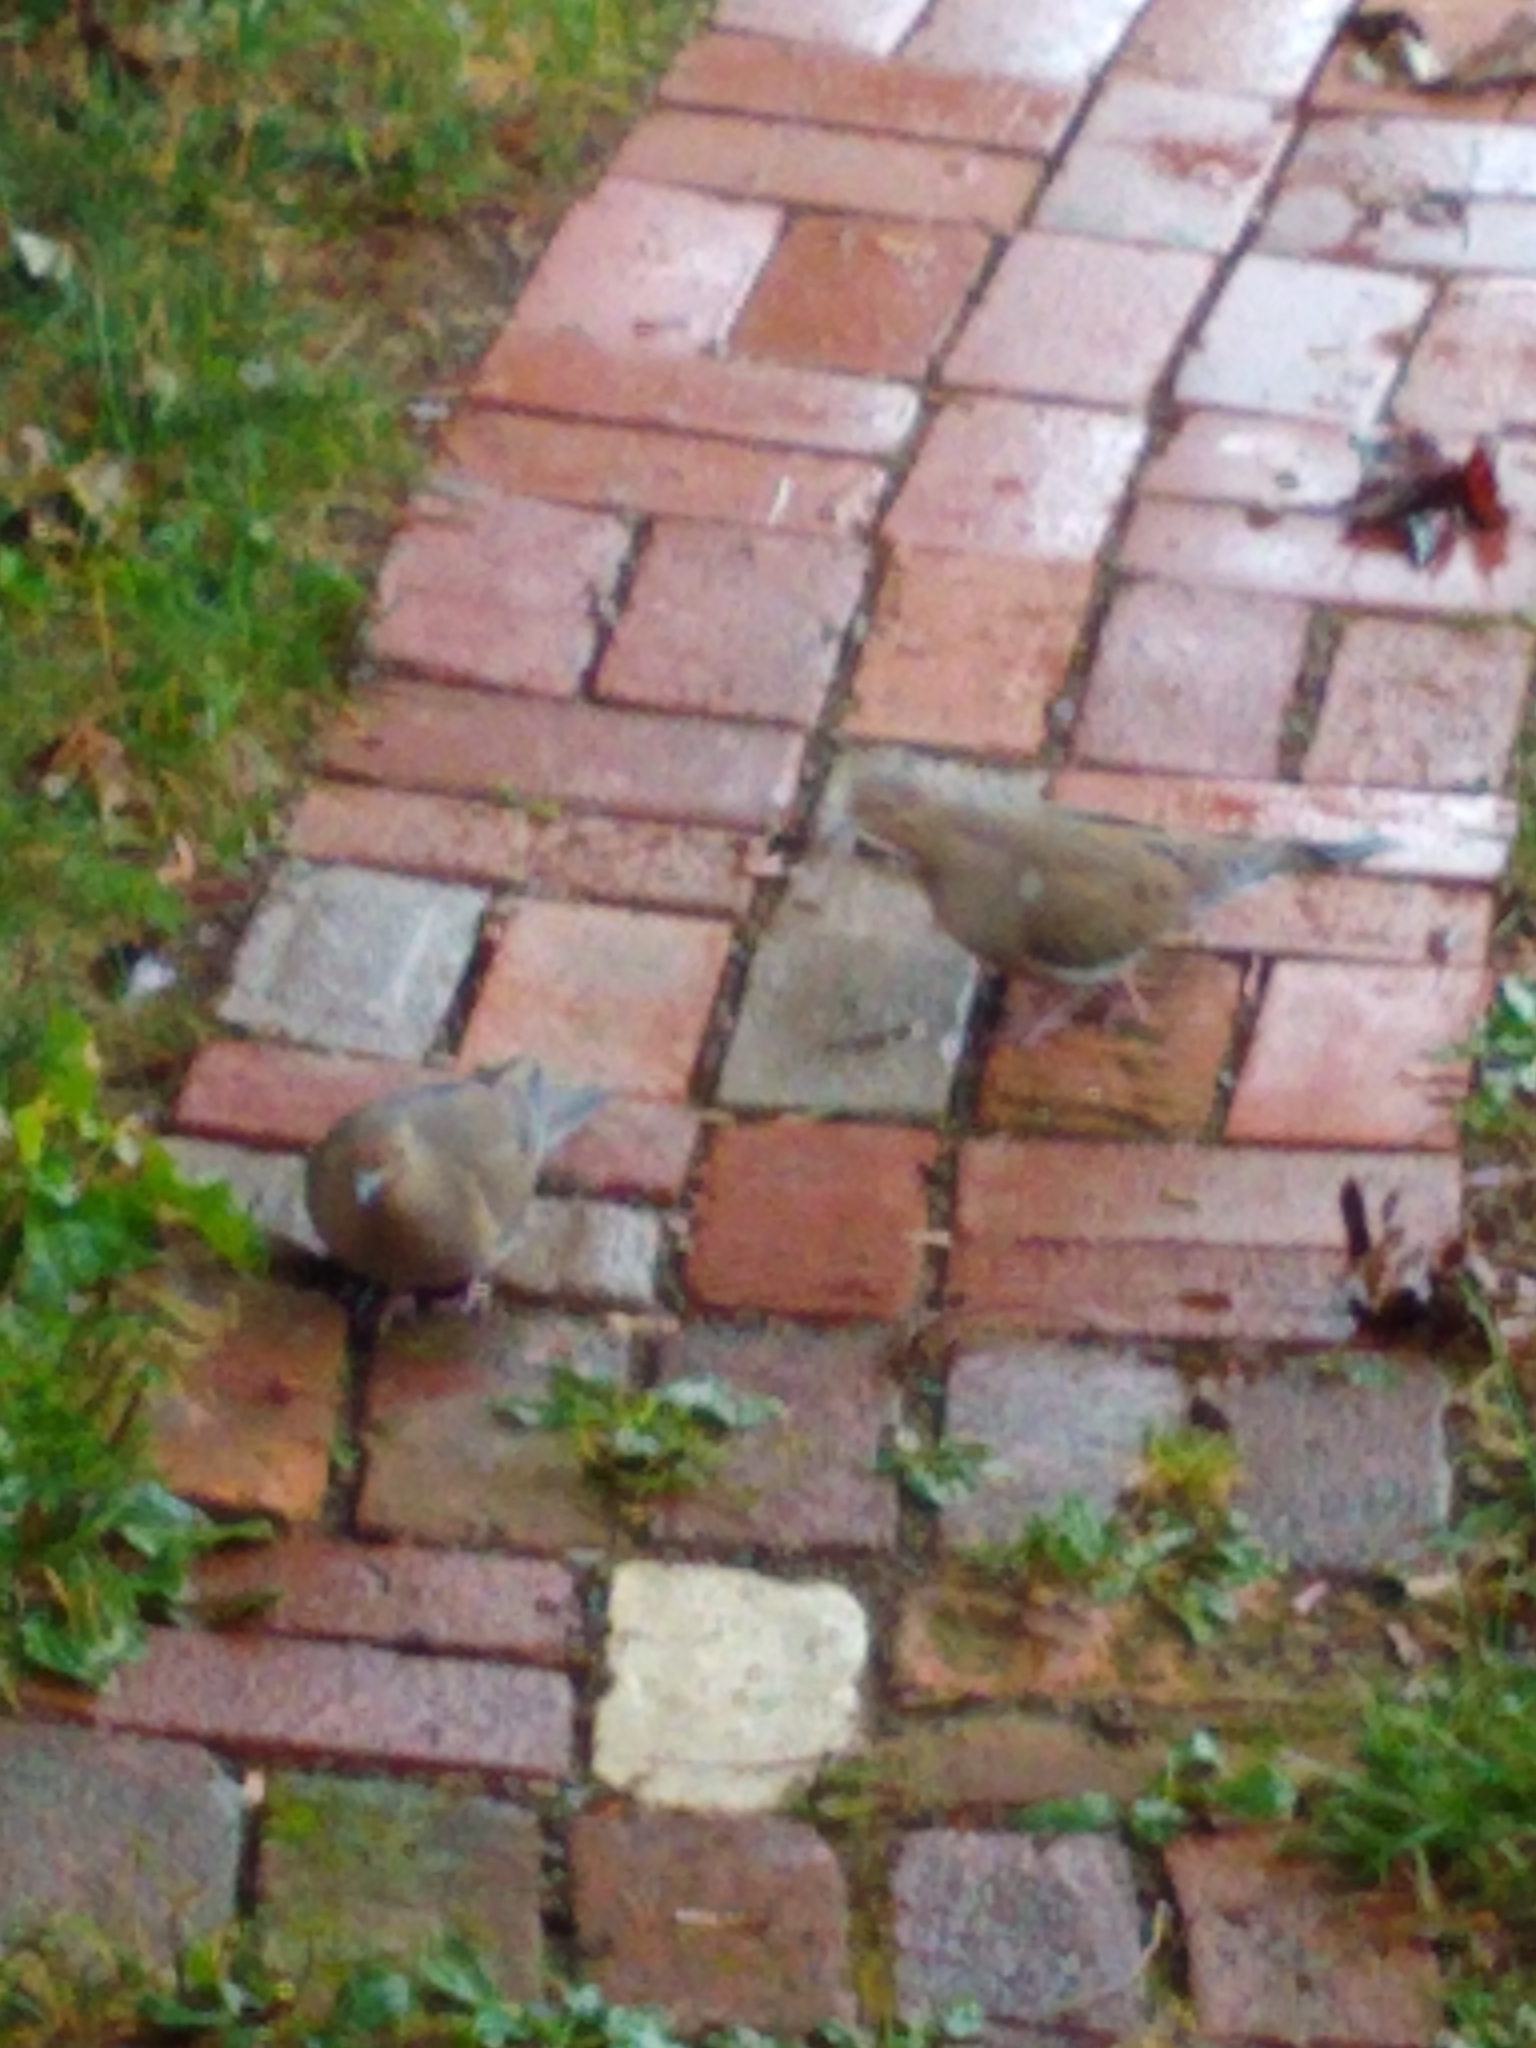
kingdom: Animalia
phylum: Chordata
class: Aves
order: Columbiformes
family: Columbidae
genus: Zenaida
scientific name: Zenaida macroura
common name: Mourning dove
